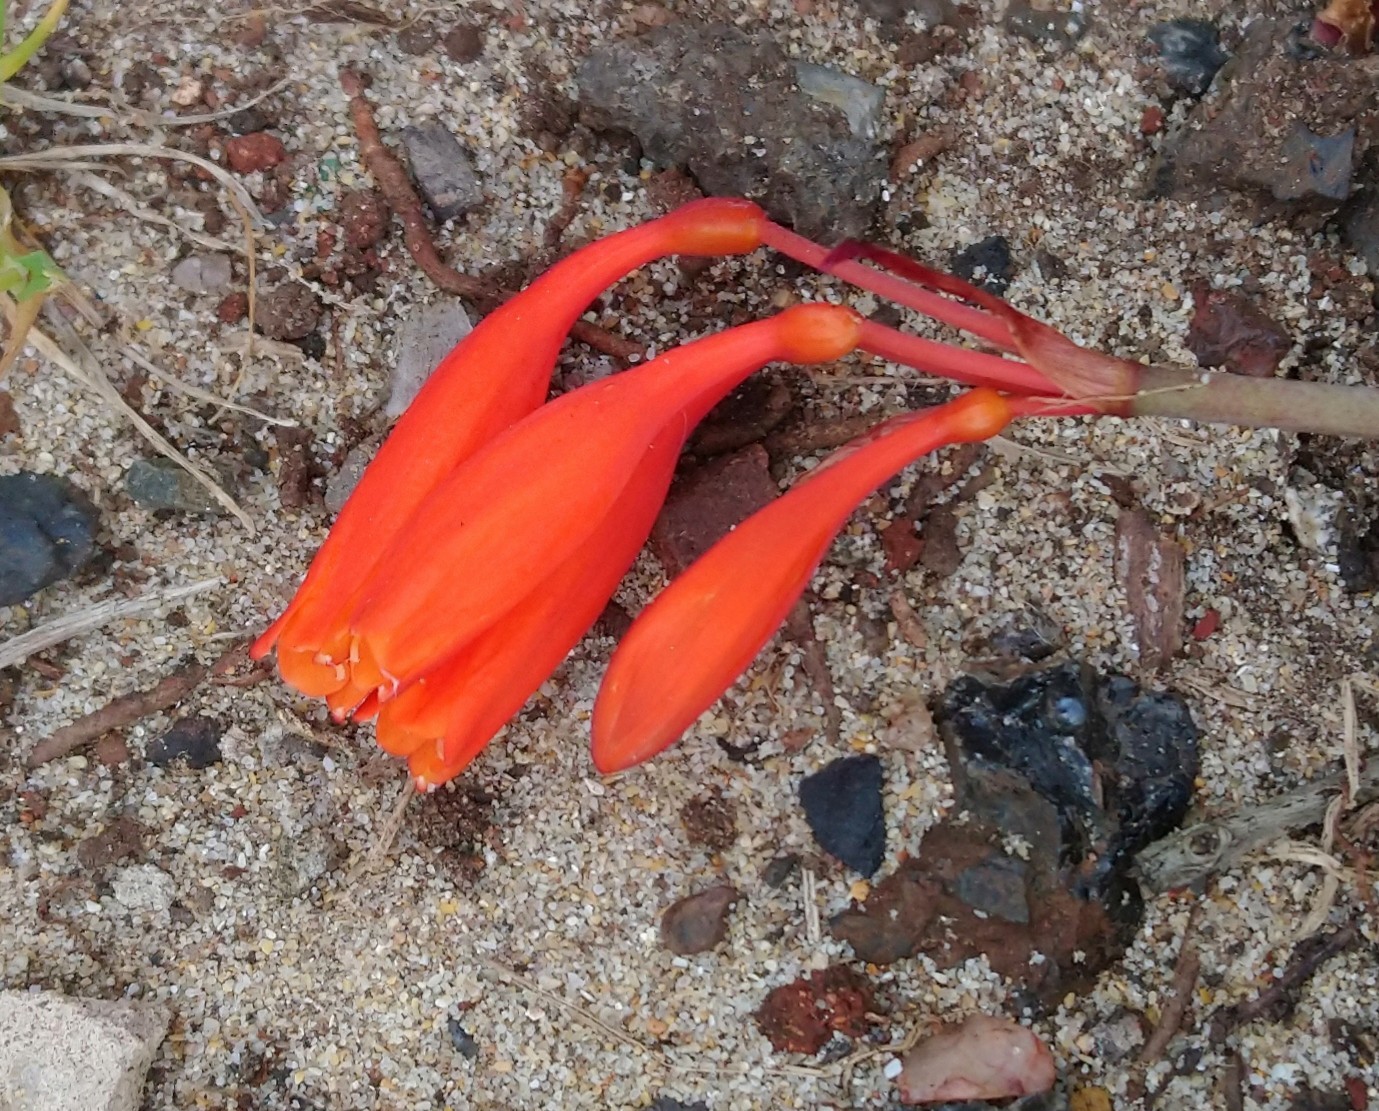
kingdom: Plantae
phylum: Tracheophyta
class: Liliopsida
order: Asparagales
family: Amaryllidaceae
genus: Cyrtanthus
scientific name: Cyrtanthus brachyscyphus
